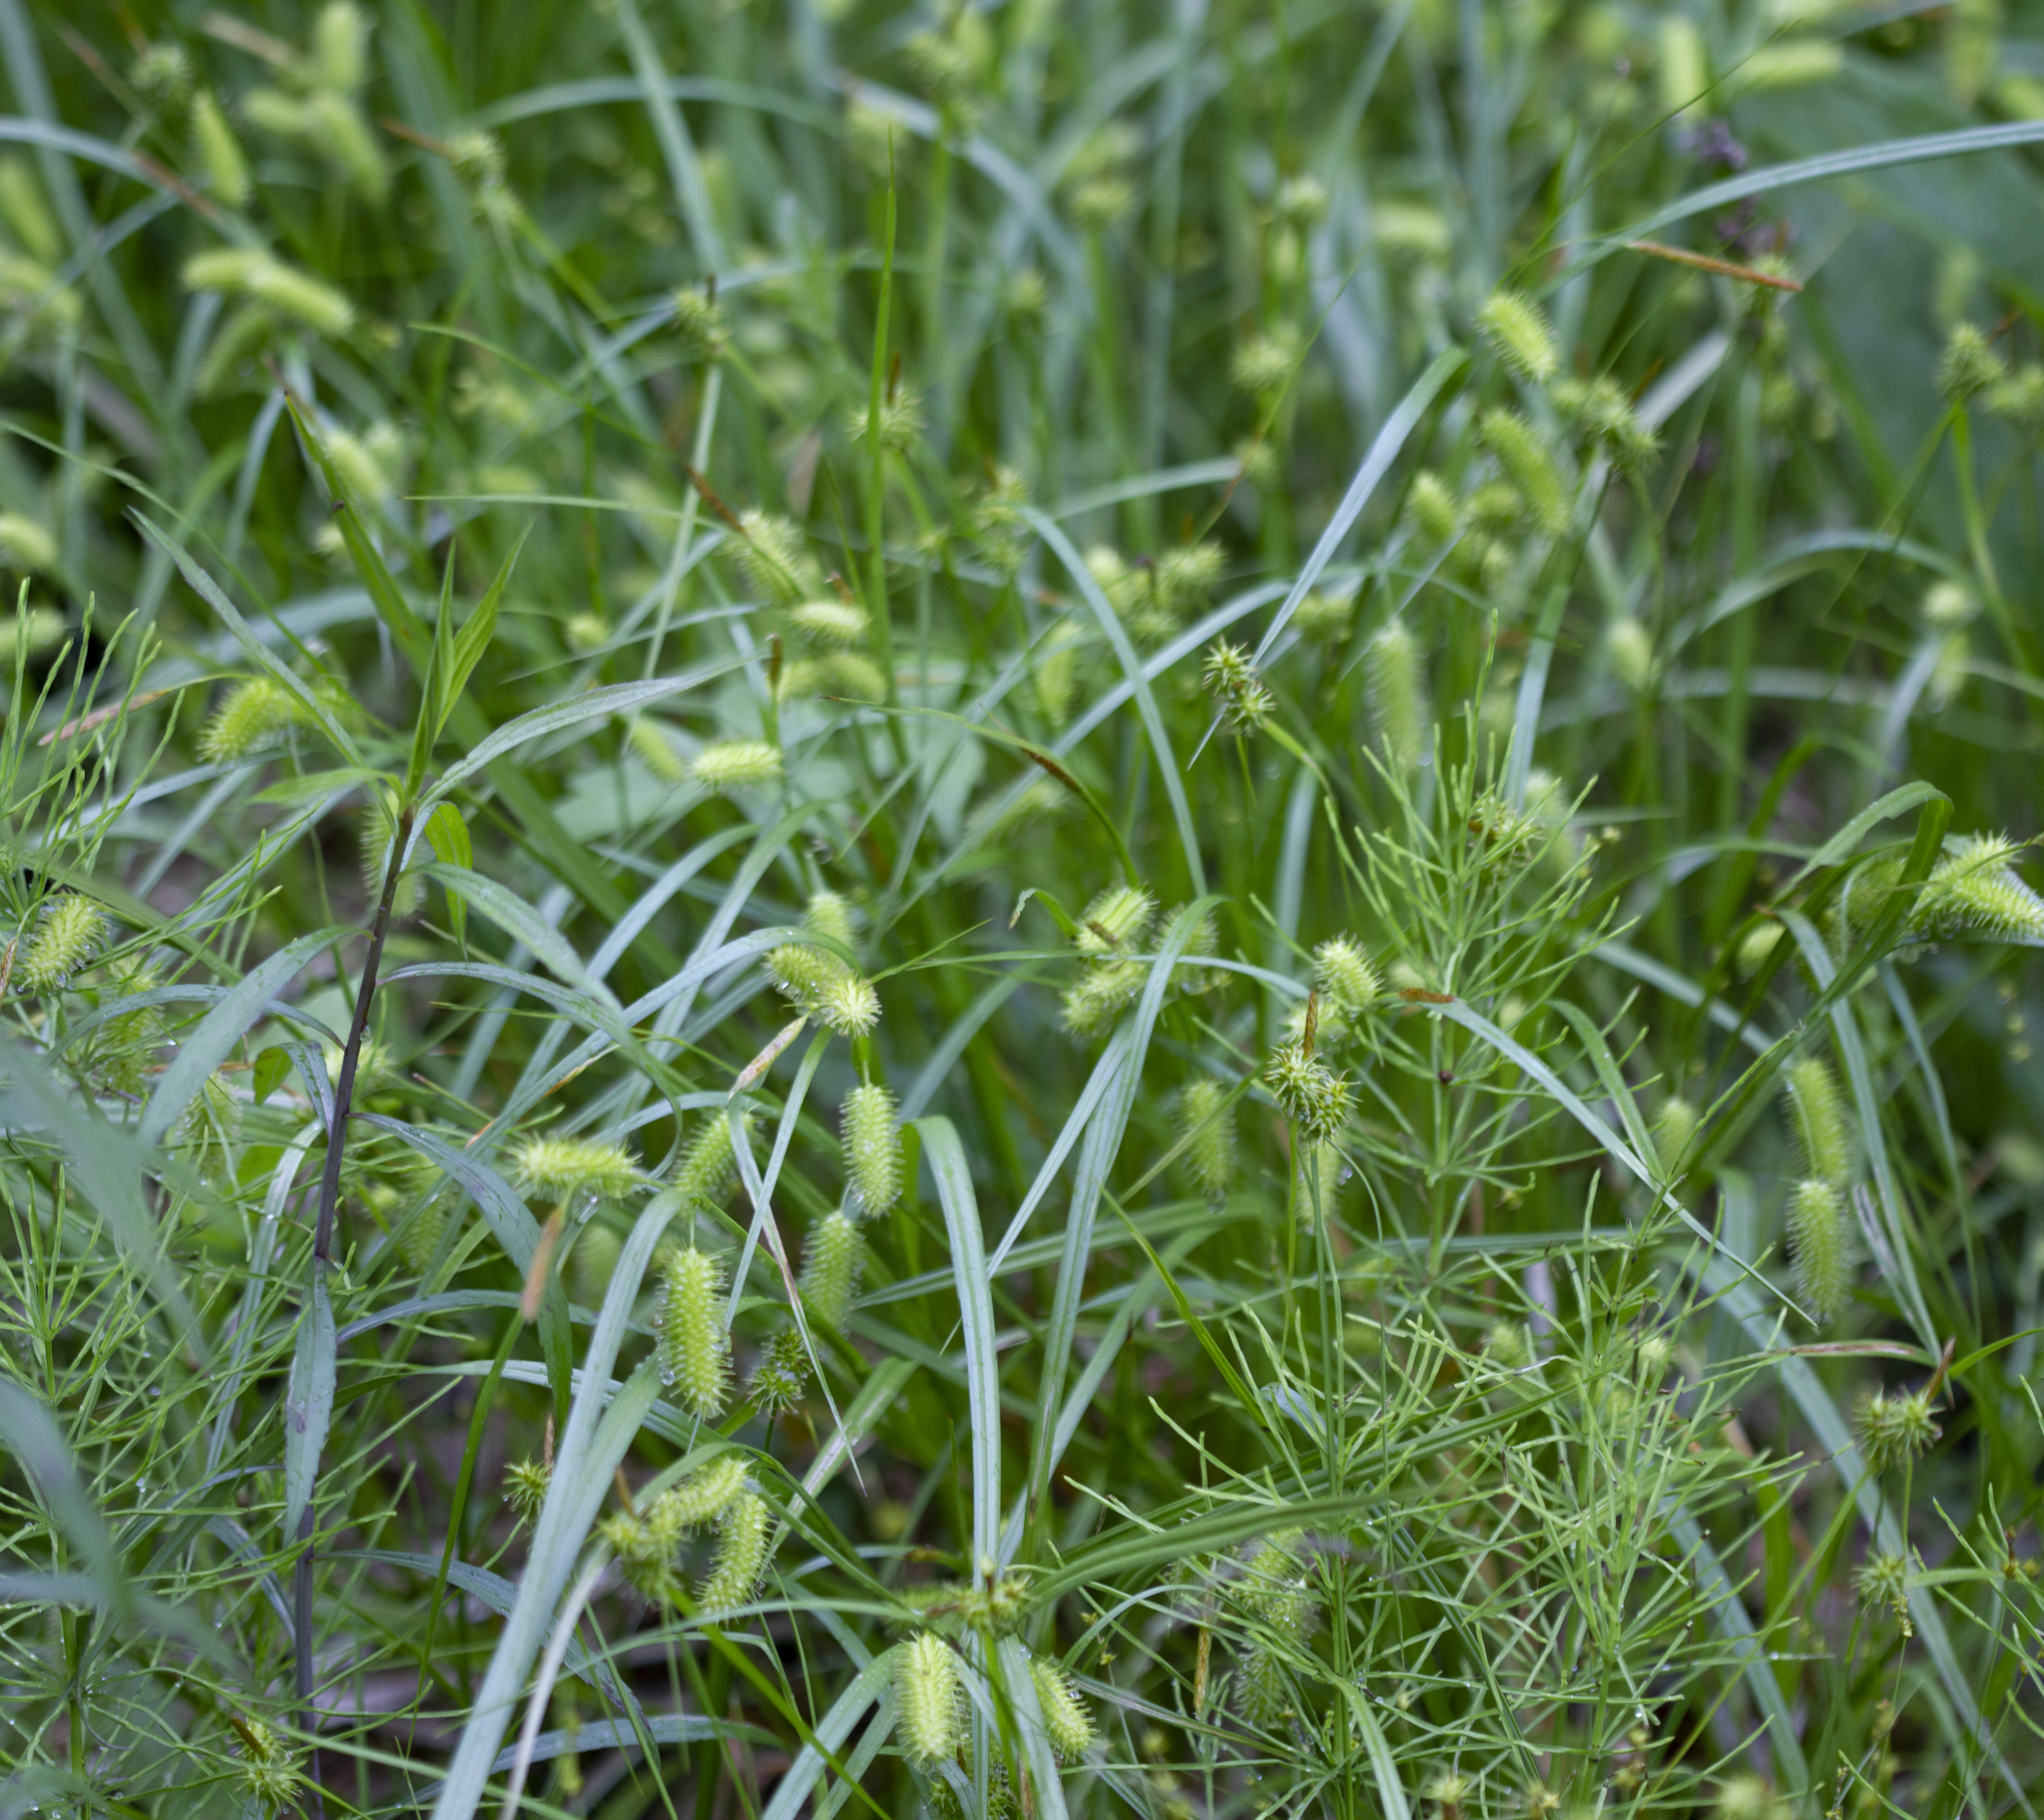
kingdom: Plantae
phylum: Tracheophyta
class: Liliopsida
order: Poales
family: Cyperaceae
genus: Carex
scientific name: Carex hystericina
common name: Bottlebrush sedge
